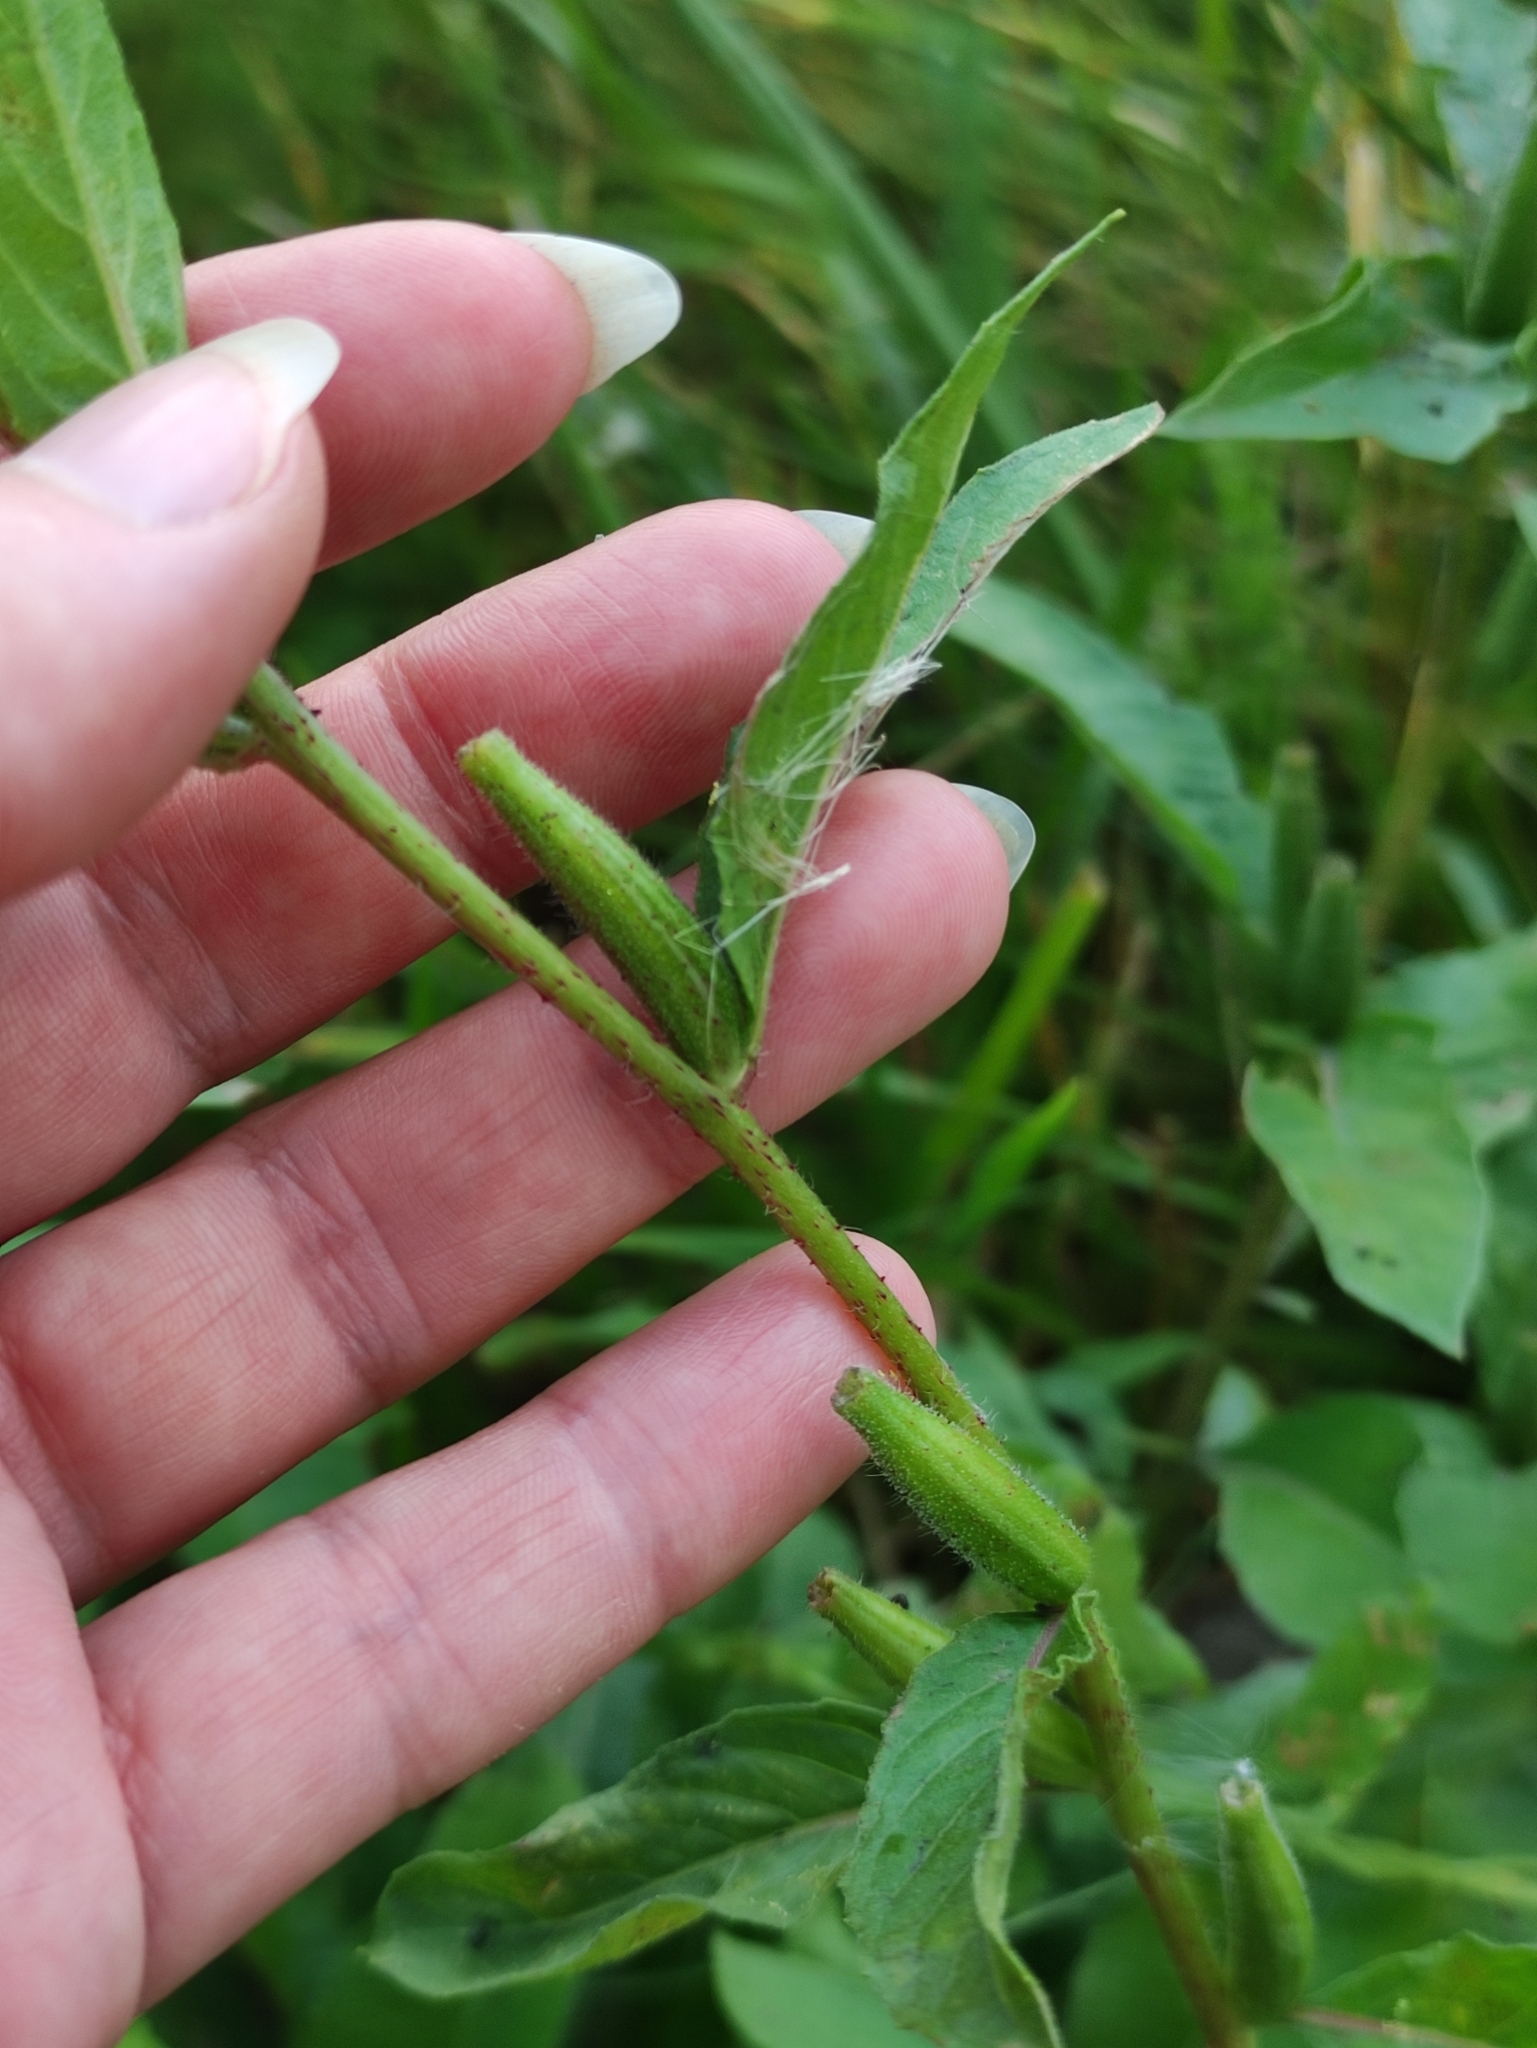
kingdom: Plantae
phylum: Tracheophyta
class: Magnoliopsida
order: Myrtales
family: Onagraceae
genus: Oenothera
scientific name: Oenothera rubricaulis
